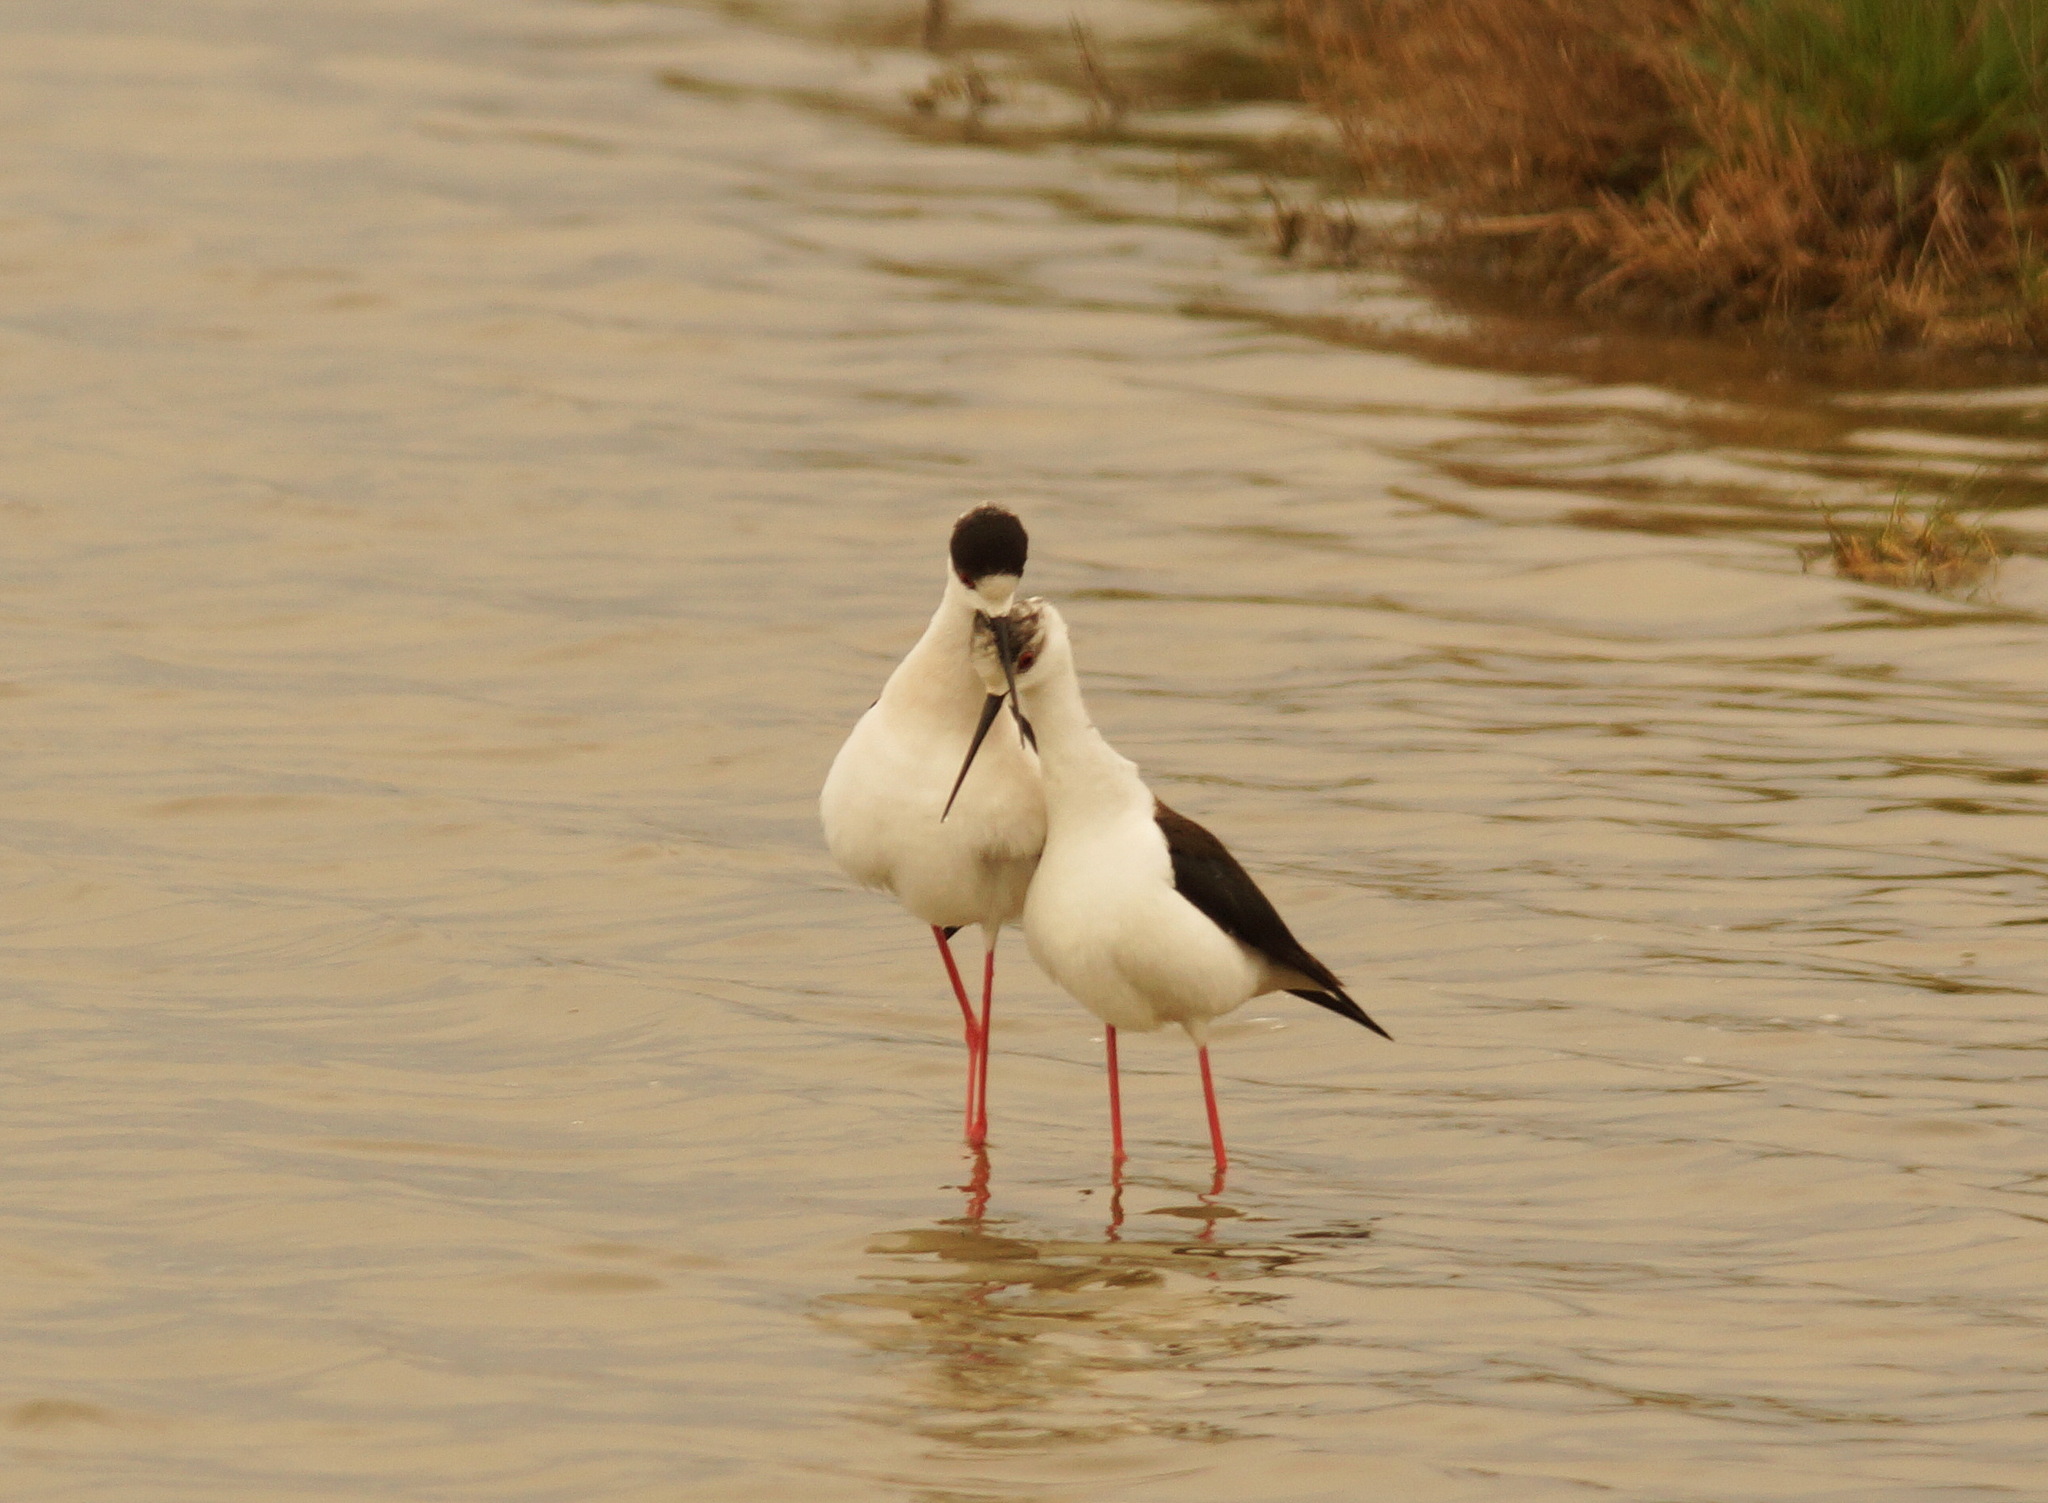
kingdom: Animalia
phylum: Chordata
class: Aves
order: Charadriiformes
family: Recurvirostridae
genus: Himantopus
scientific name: Himantopus himantopus
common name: Black-winged stilt
